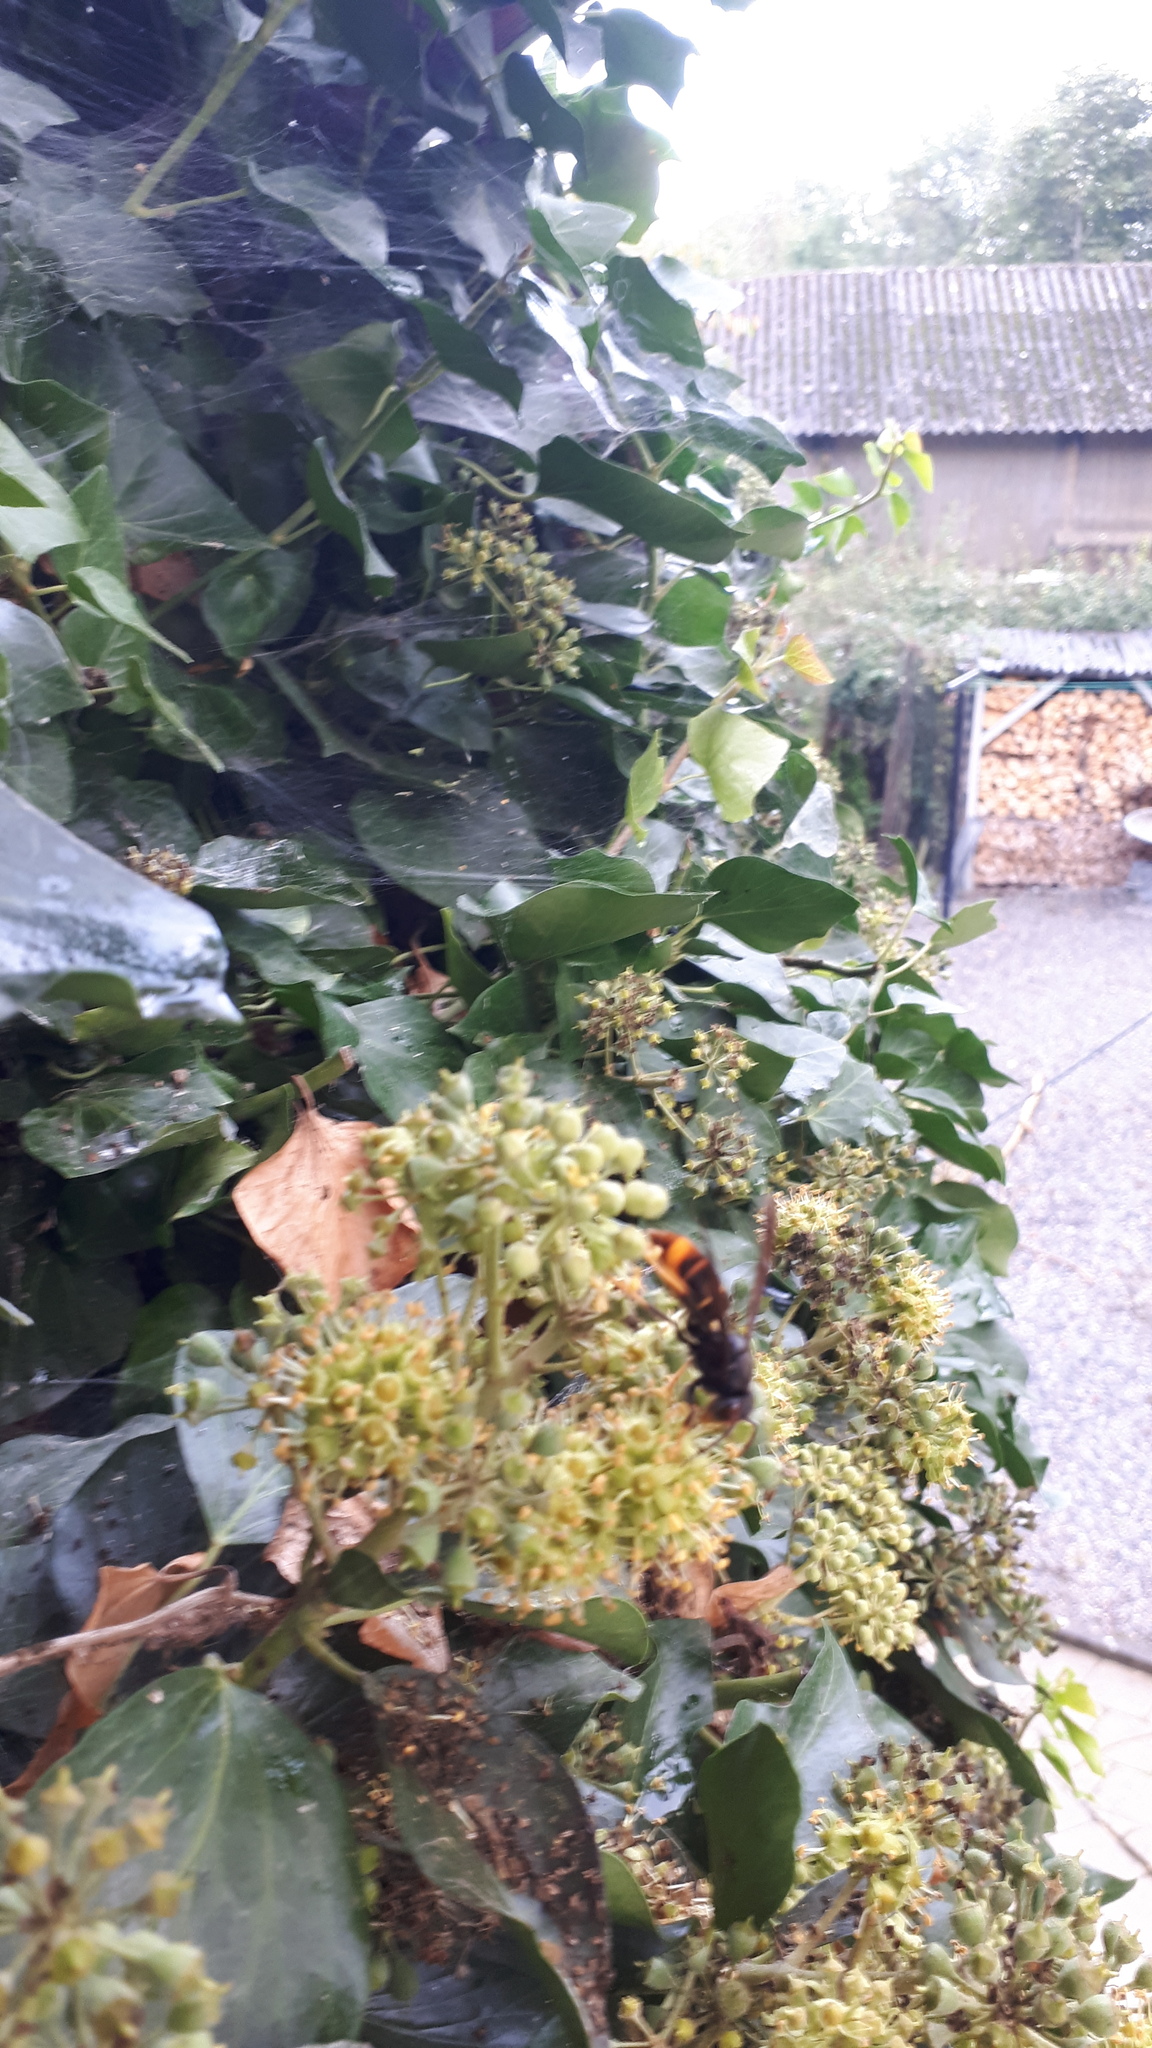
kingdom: Animalia
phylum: Arthropoda
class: Insecta
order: Hymenoptera
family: Vespidae
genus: Vespa
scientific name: Vespa velutina
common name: Asian hornet
